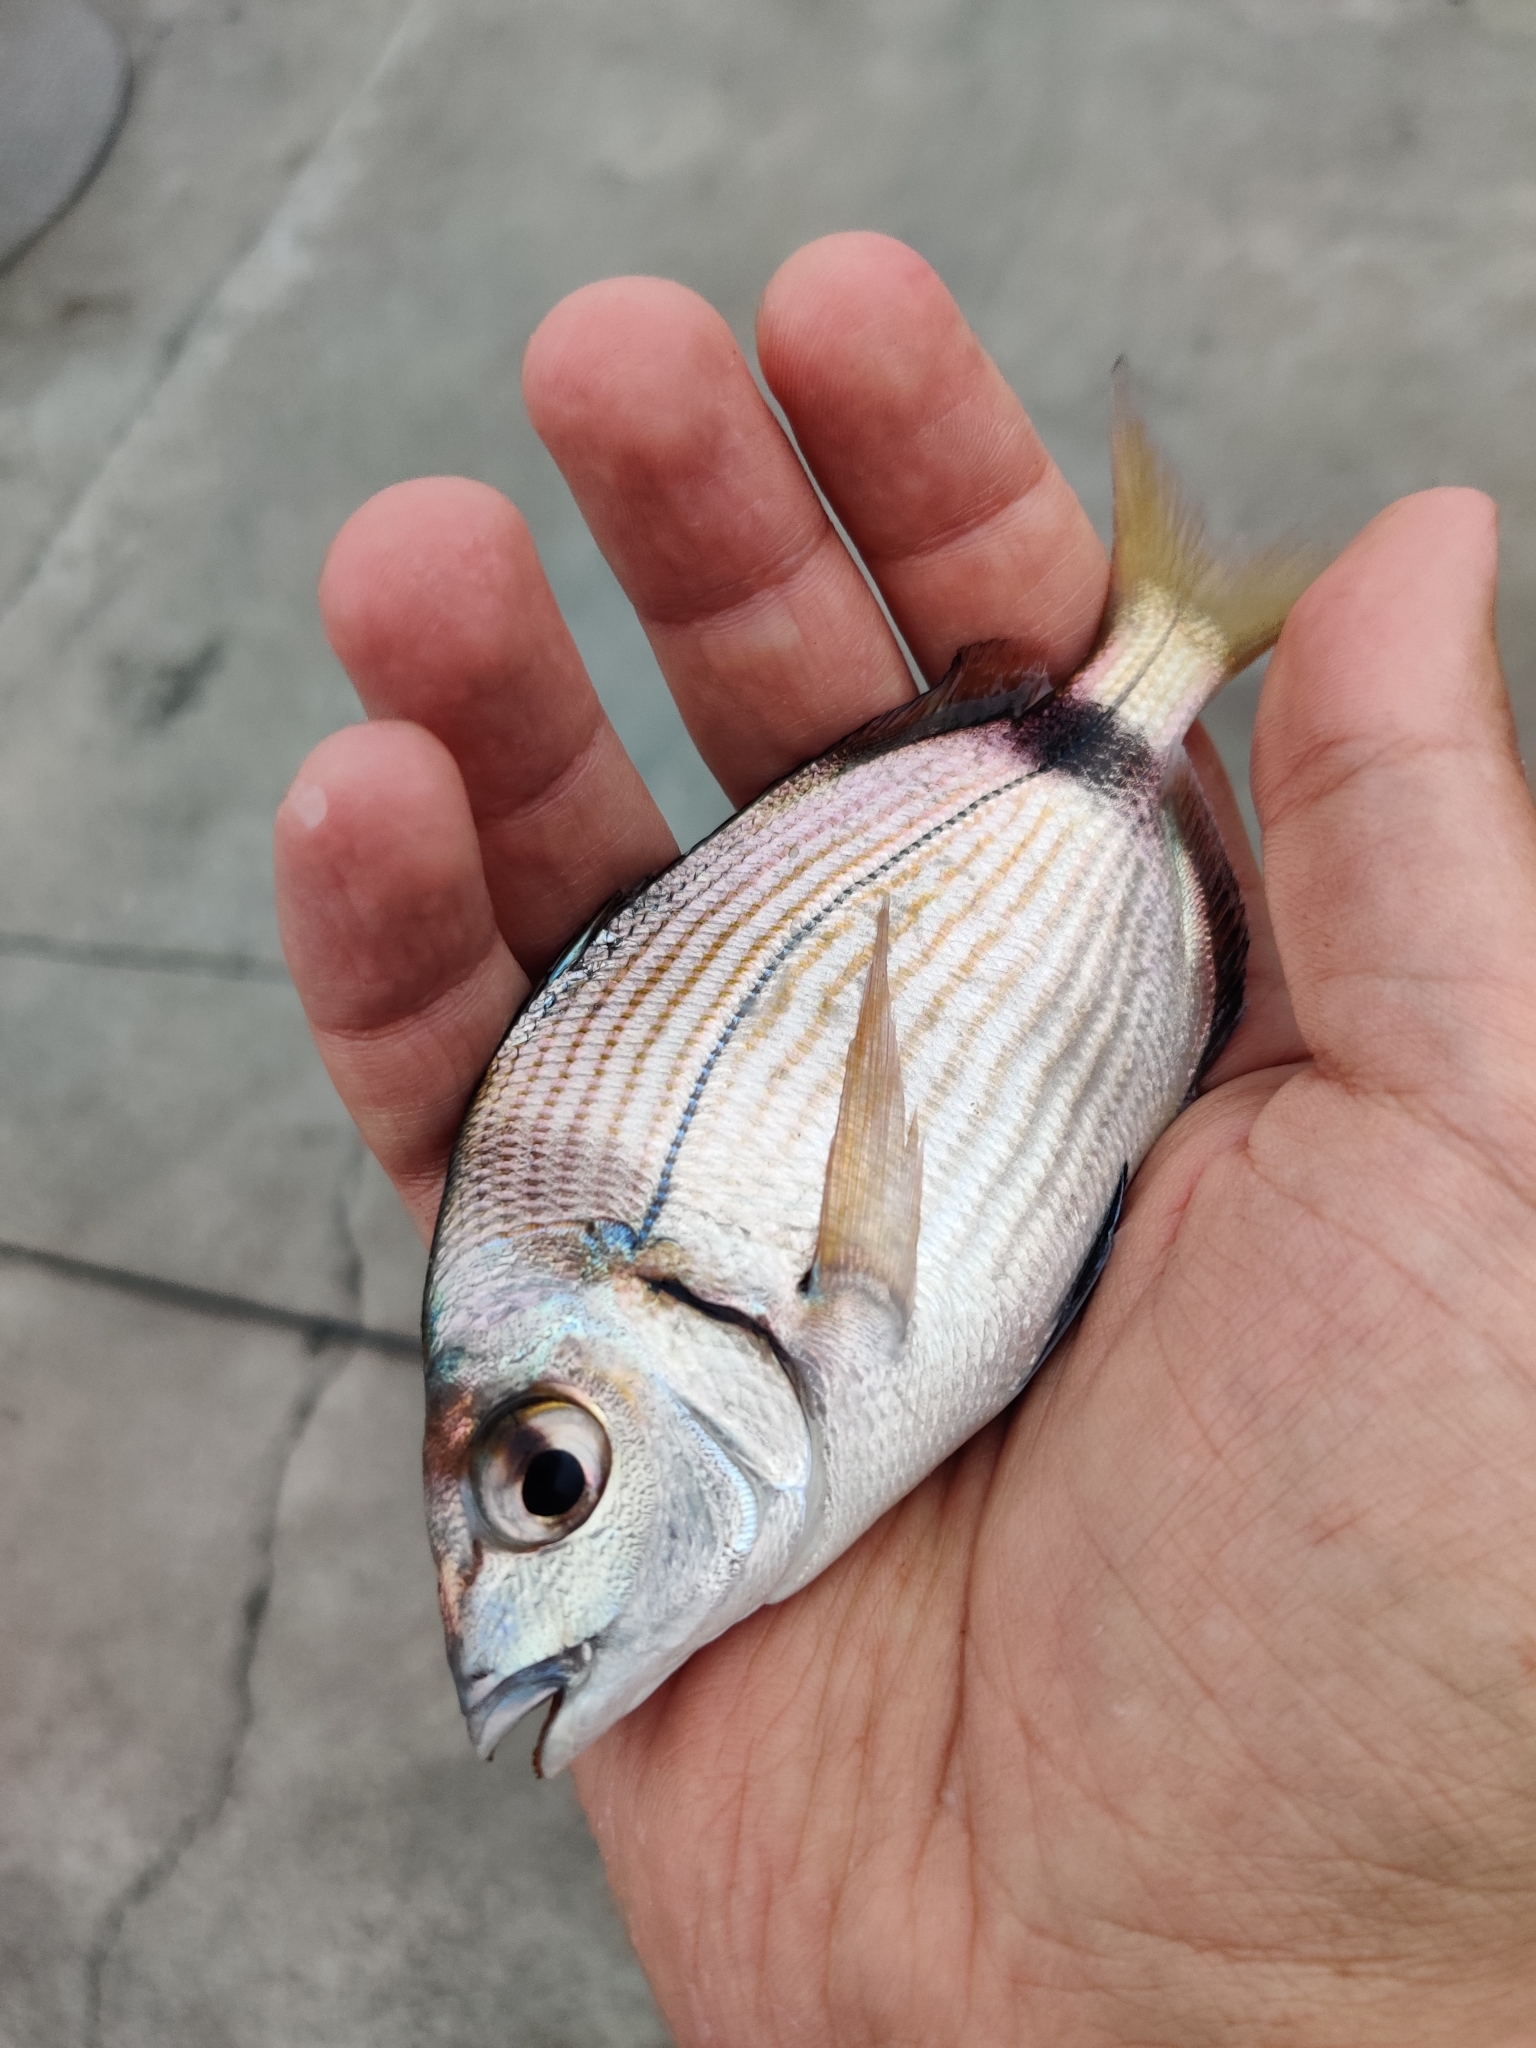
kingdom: Animalia
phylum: Chordata
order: Perciformes
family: Sparidae
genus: Diplodus
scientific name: Diplodus vulgaris
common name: Common two-banded seabream
